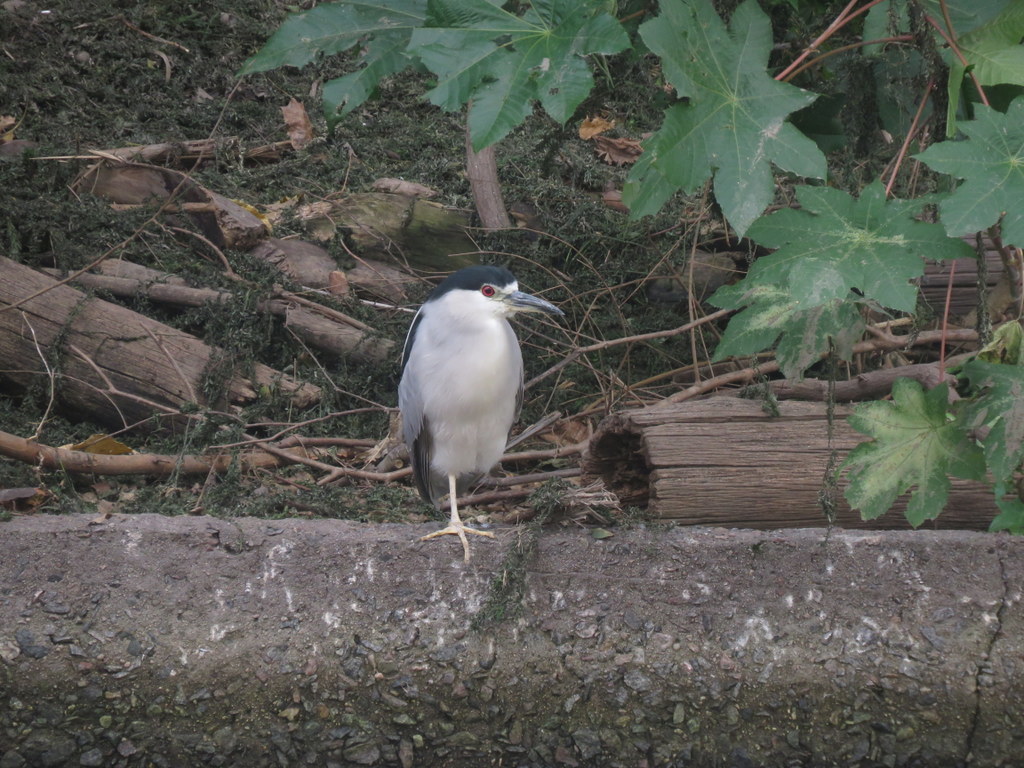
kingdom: Animalia
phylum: Chordata
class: Aves
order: Pelecaniformes
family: Ardeidae
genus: Nycticorax
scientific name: Nycticorax nycticorax
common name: Black-crowned night heron
